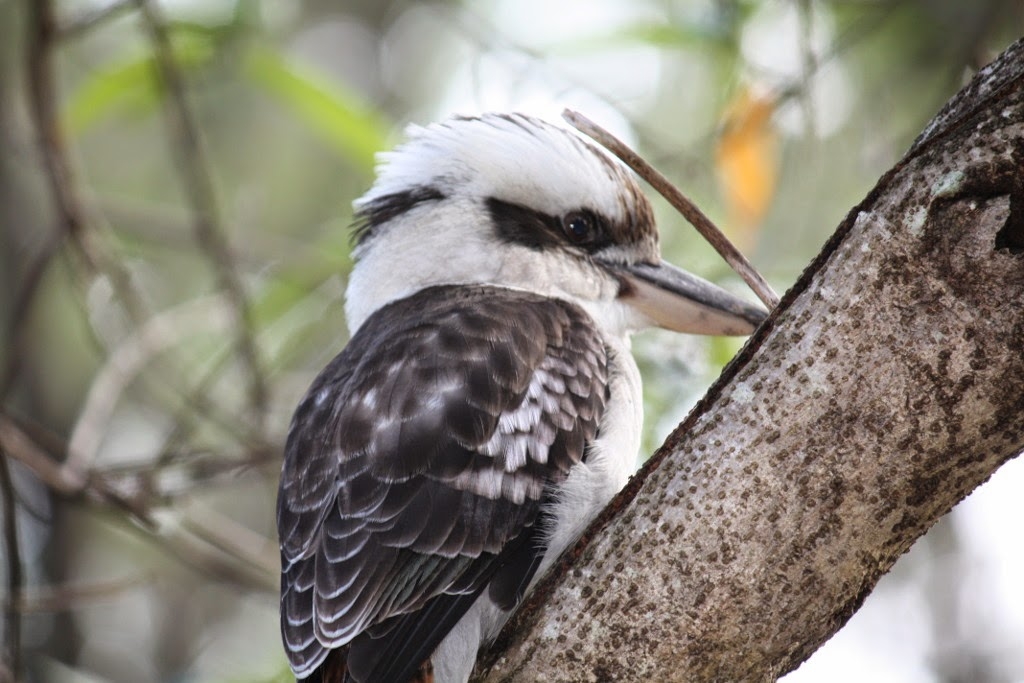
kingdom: Animalia
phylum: Chordata
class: Aves
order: Coraciiformes
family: Alcedinidae
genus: Dacelo
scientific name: Dacelo novaeguineae
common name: Laughing kookaburra
